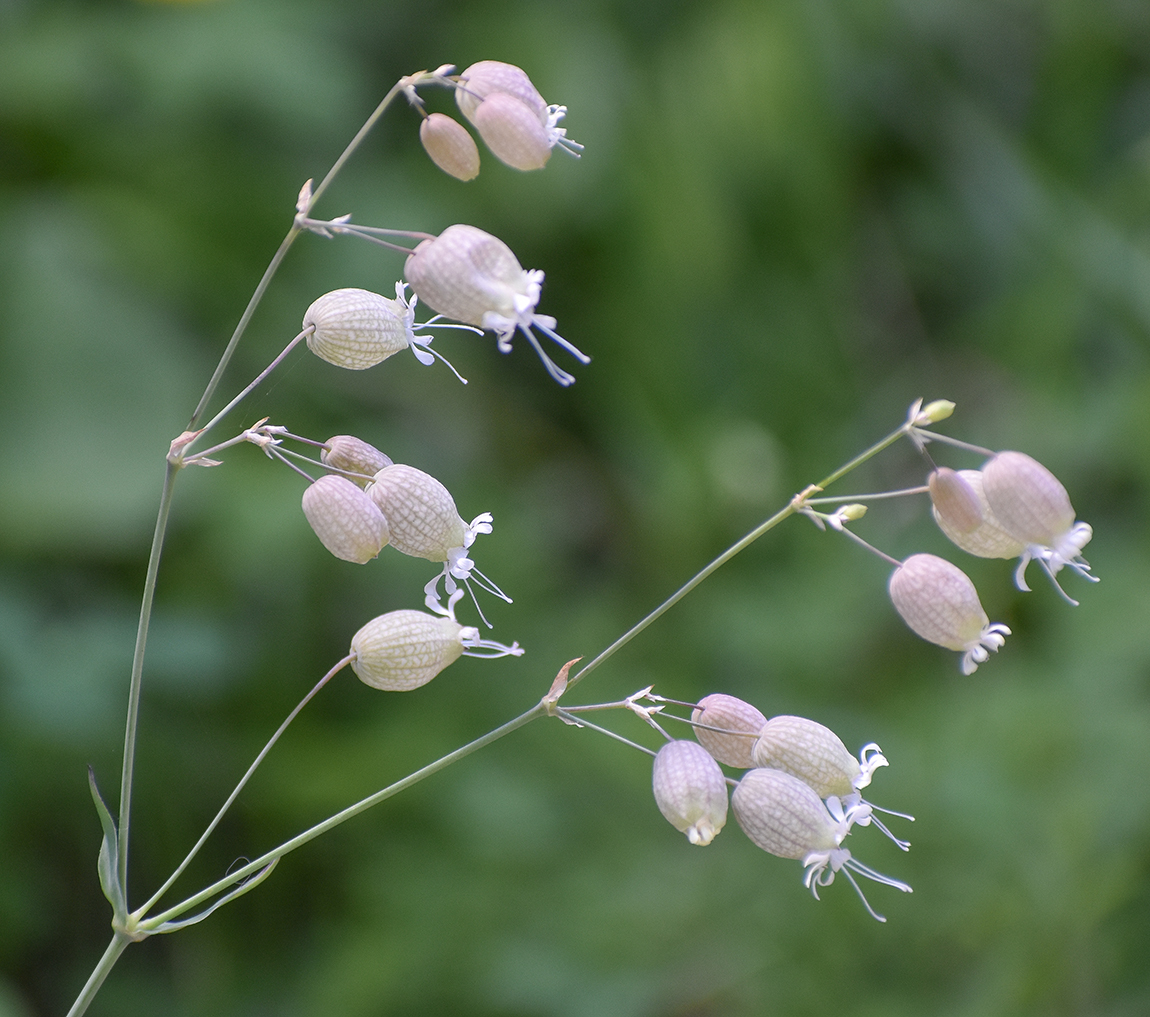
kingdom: Plantae
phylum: Tracheophyta
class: Magnoliopsida
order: Caryophyllales
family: Caryophyllaceae
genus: Silene
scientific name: Silene vulgaris
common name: Bladder campion
